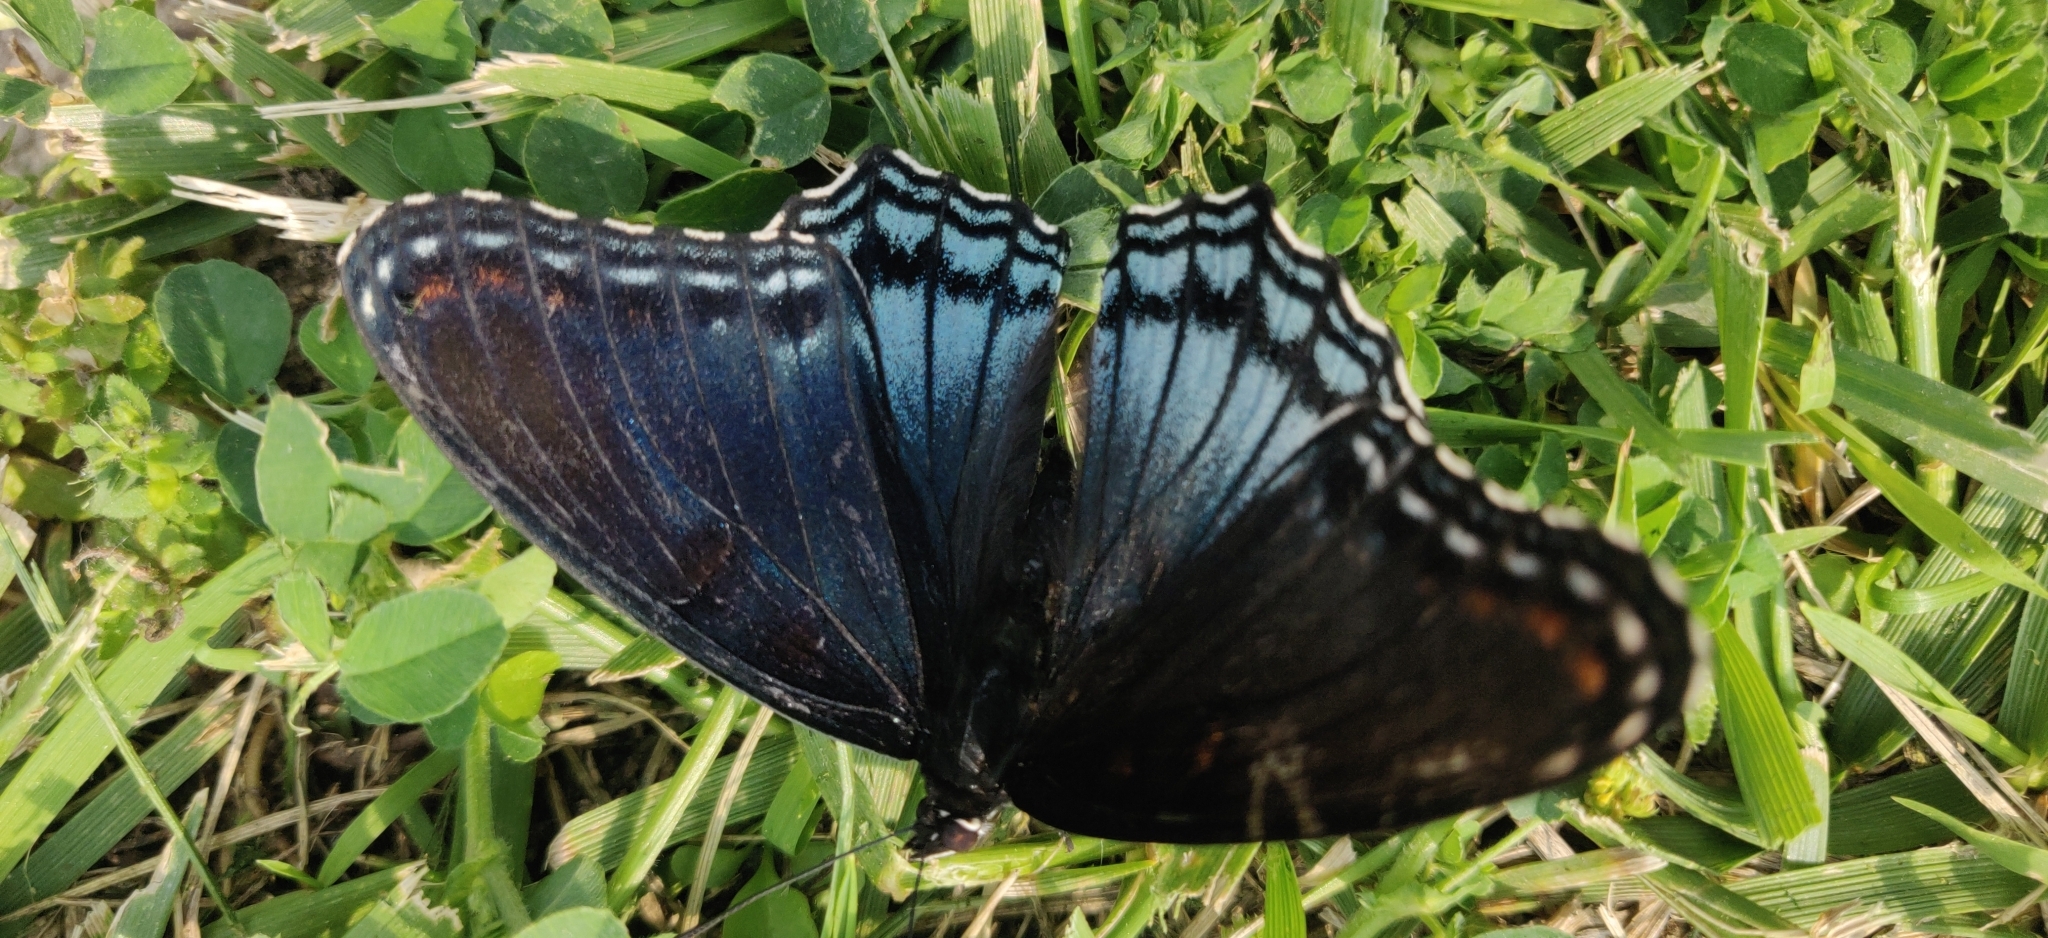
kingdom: Animalia
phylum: Arthropoda
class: Insecta
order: Lepidoptera
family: Nymphalidae
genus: Limenitis
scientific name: Limenitis astyanax
